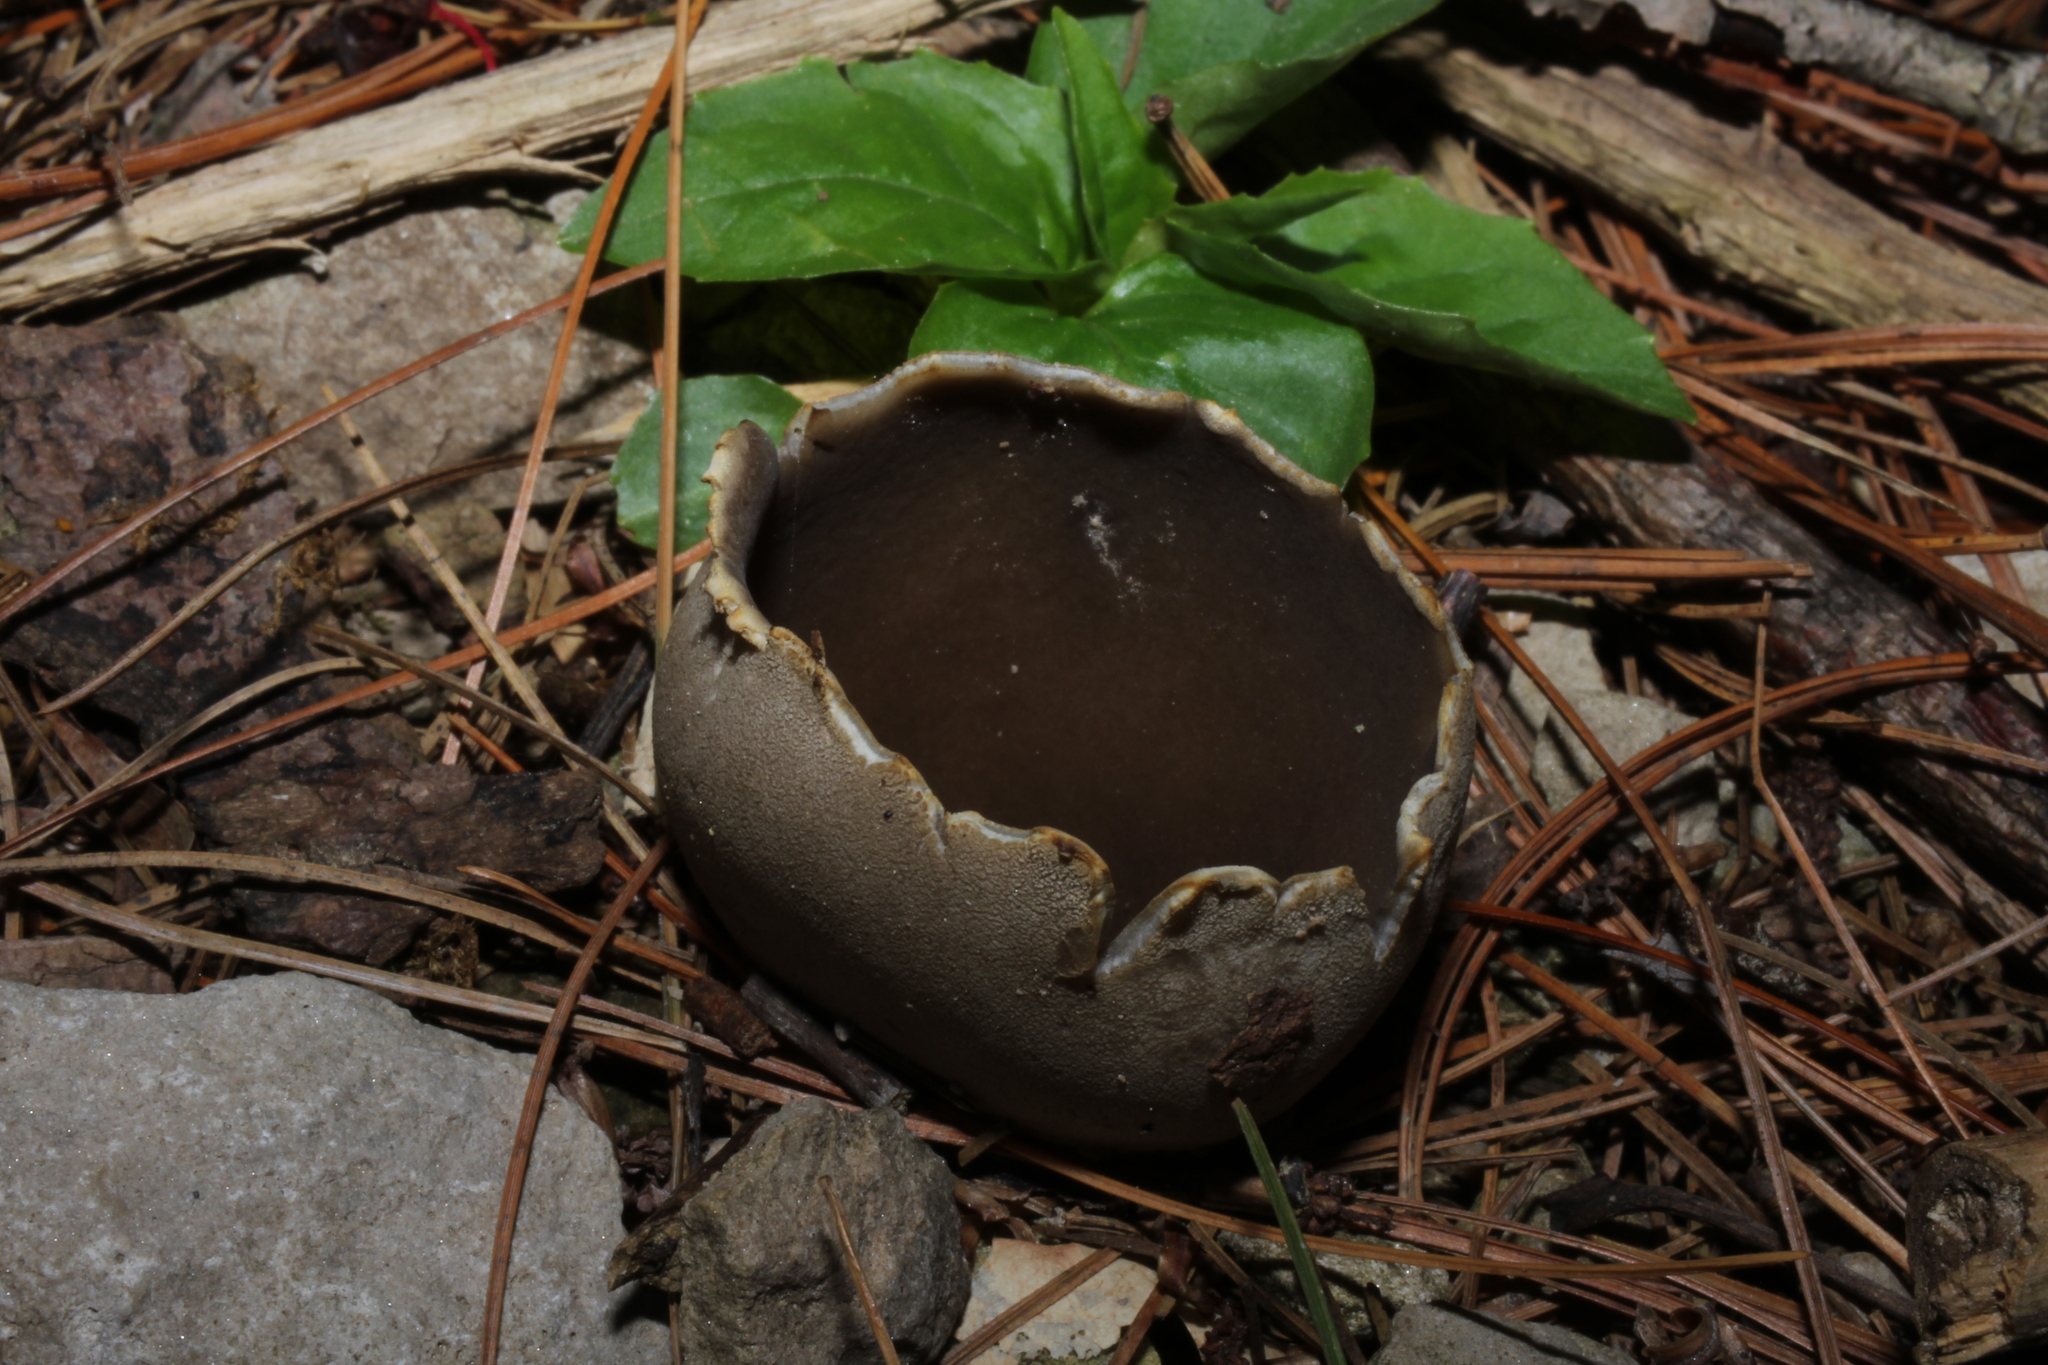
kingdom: Fungi
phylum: Ascomycota
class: Pezizomycetes
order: Pezizales
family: Sarcosomataceae
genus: Urnula
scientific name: Urnula craterium
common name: Devil's urn
